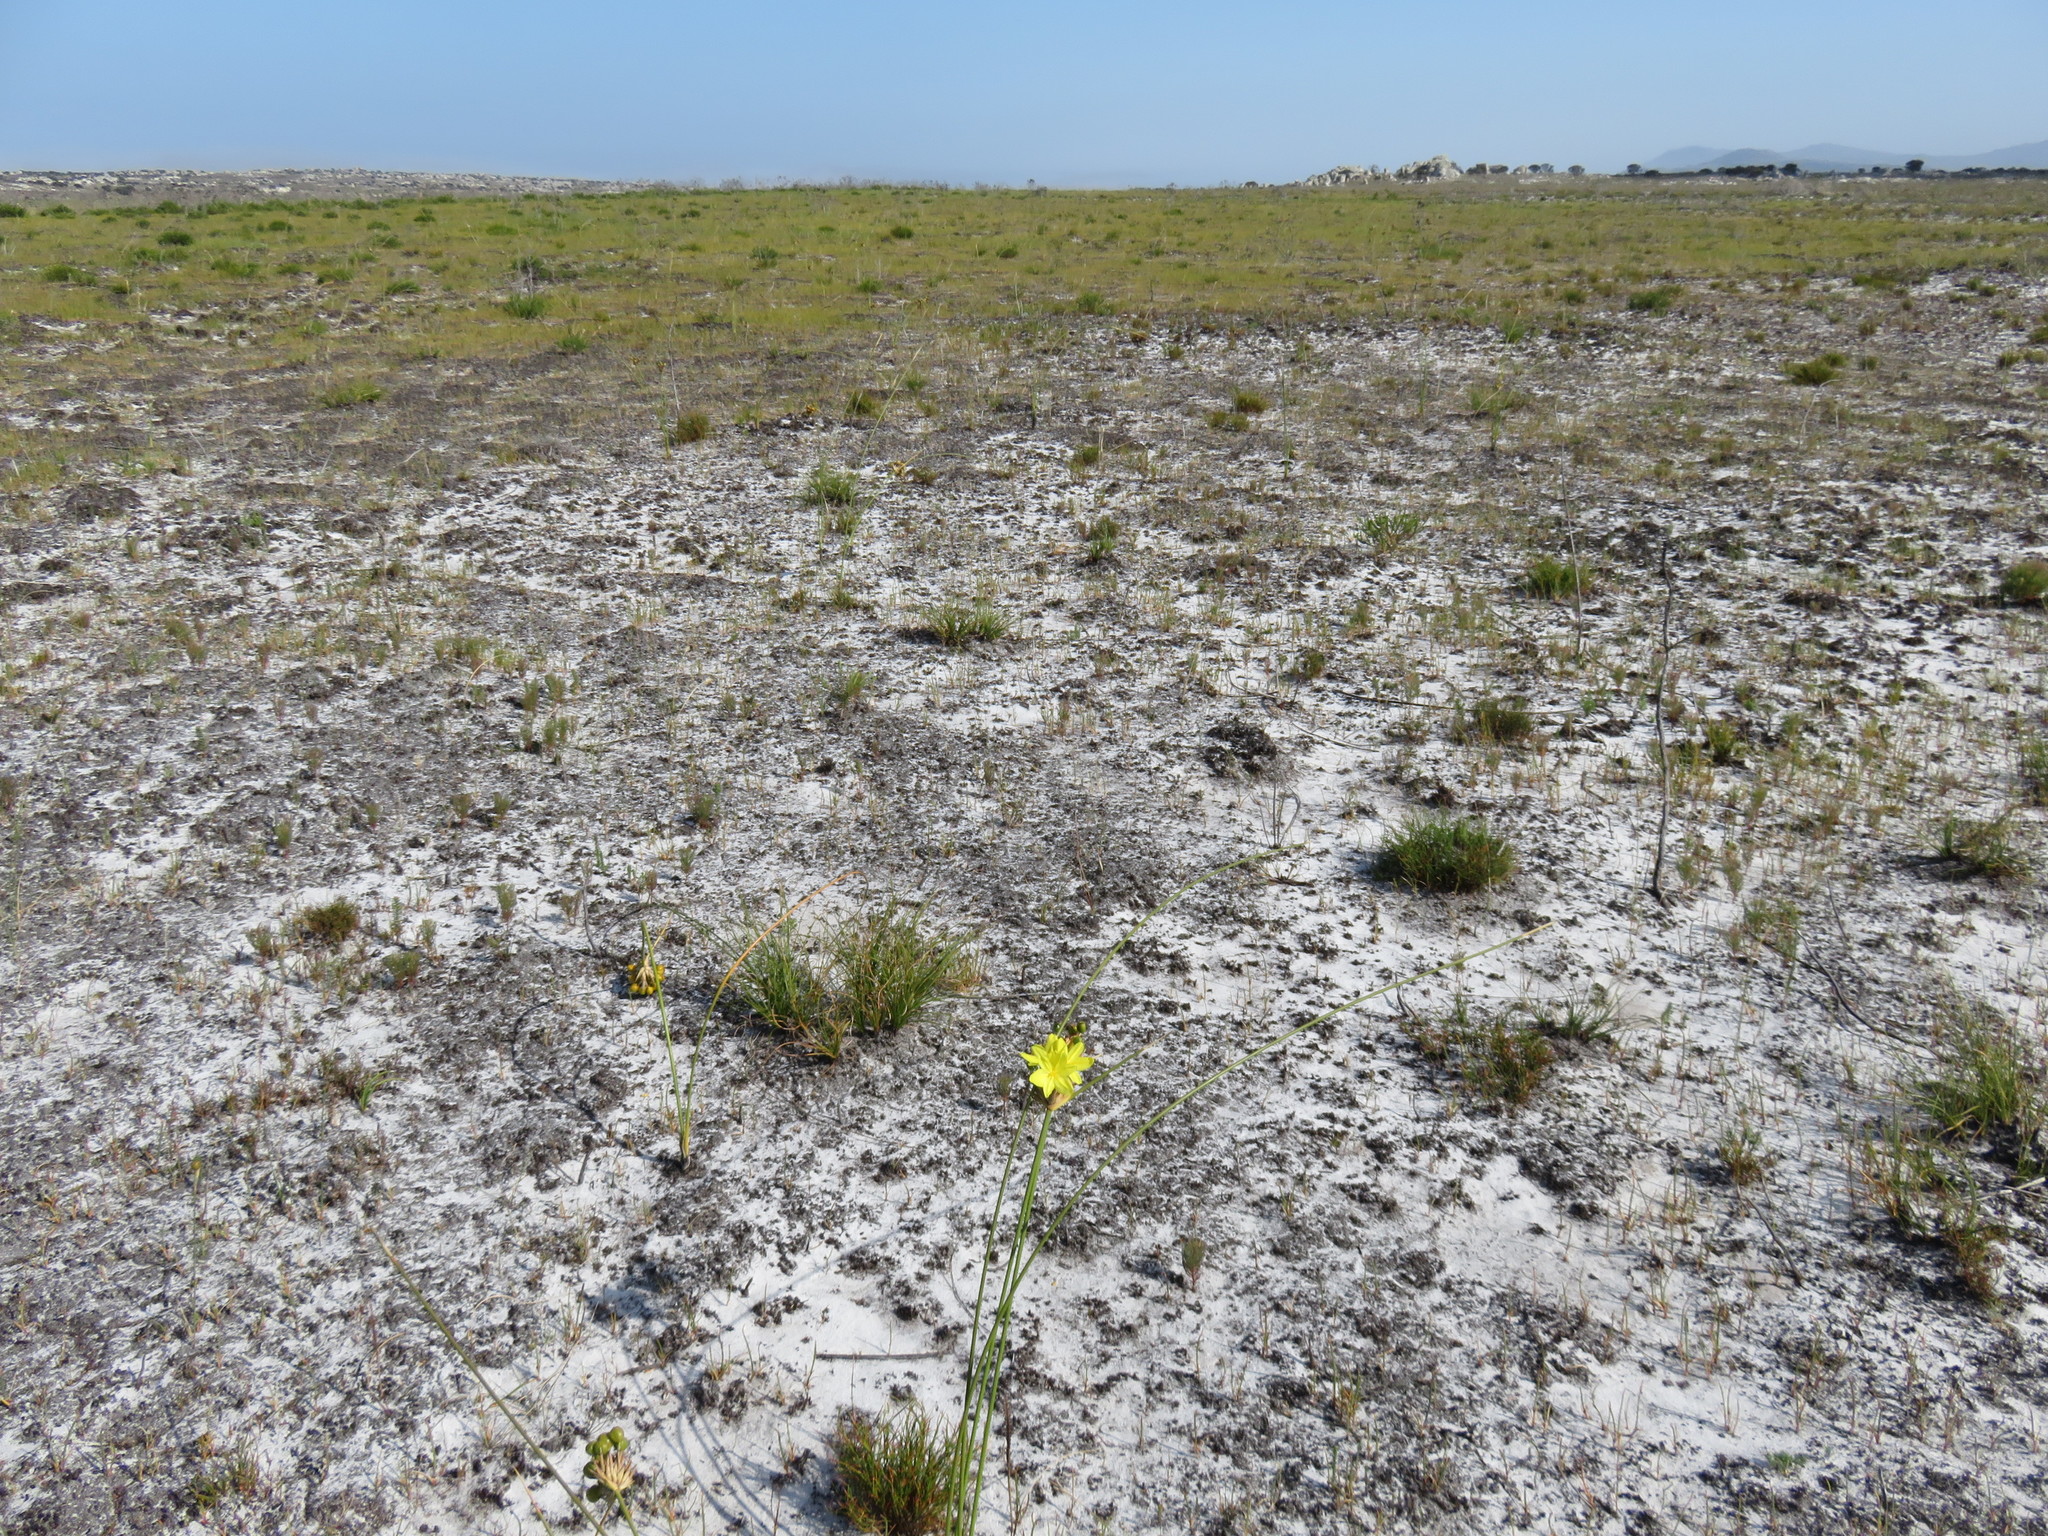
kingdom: Plantae
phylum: Tracheophyta
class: Liliopsida
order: Asparagales
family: Iridaceae
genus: Bobartia
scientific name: Bobartia indica
